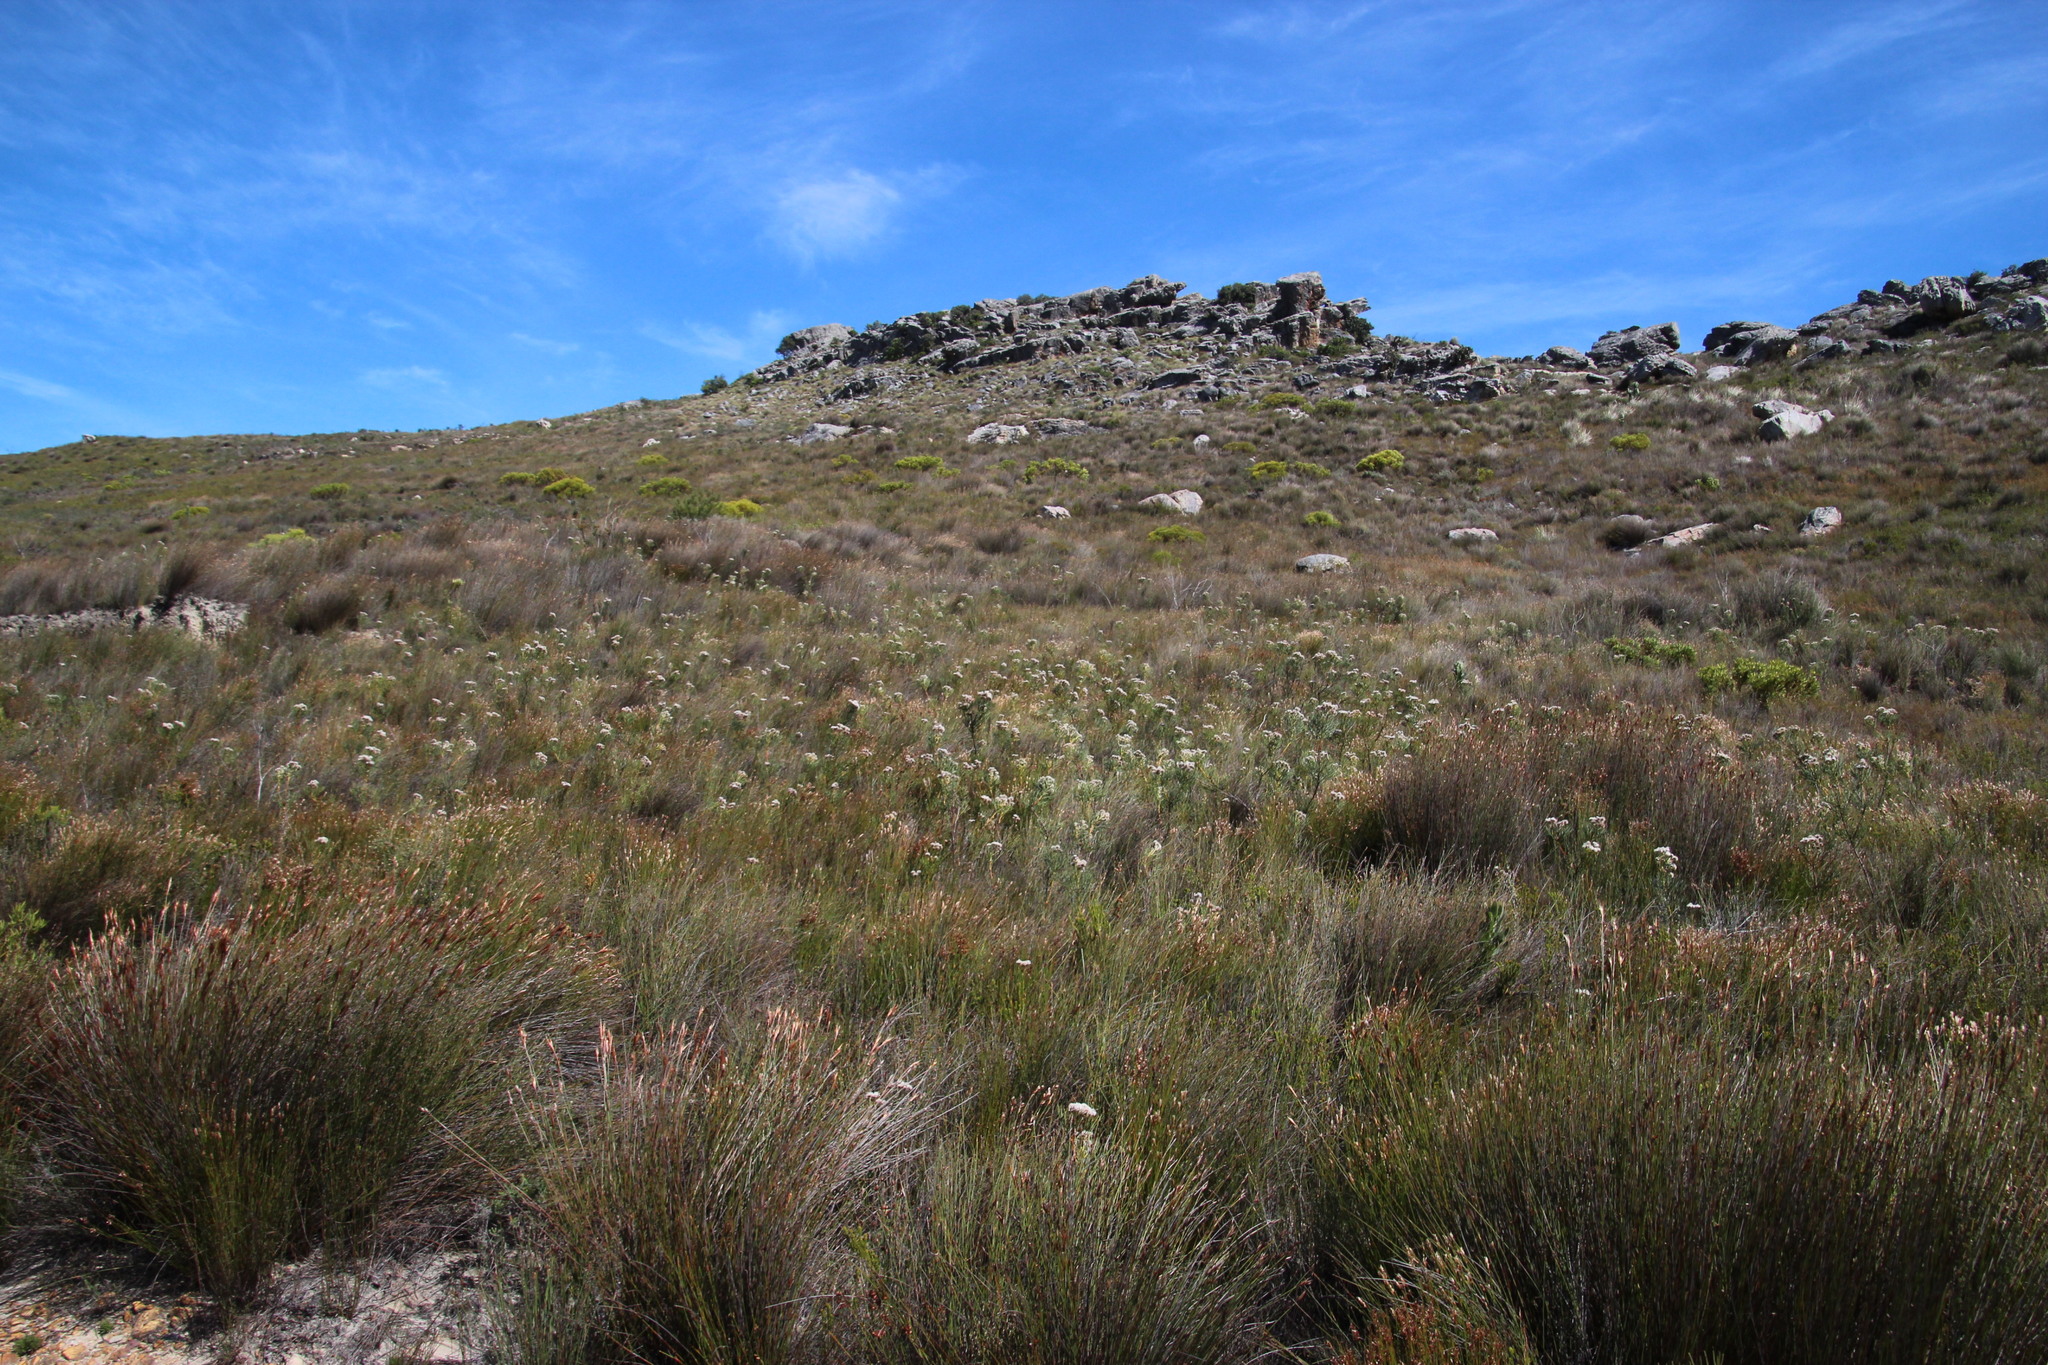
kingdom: Plantae
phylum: Tracheophyta
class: Magnoliopsida
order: Proteales
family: Proteaceae
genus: Serruria
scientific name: Serruria triternata
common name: Tulbagh spiderhead
